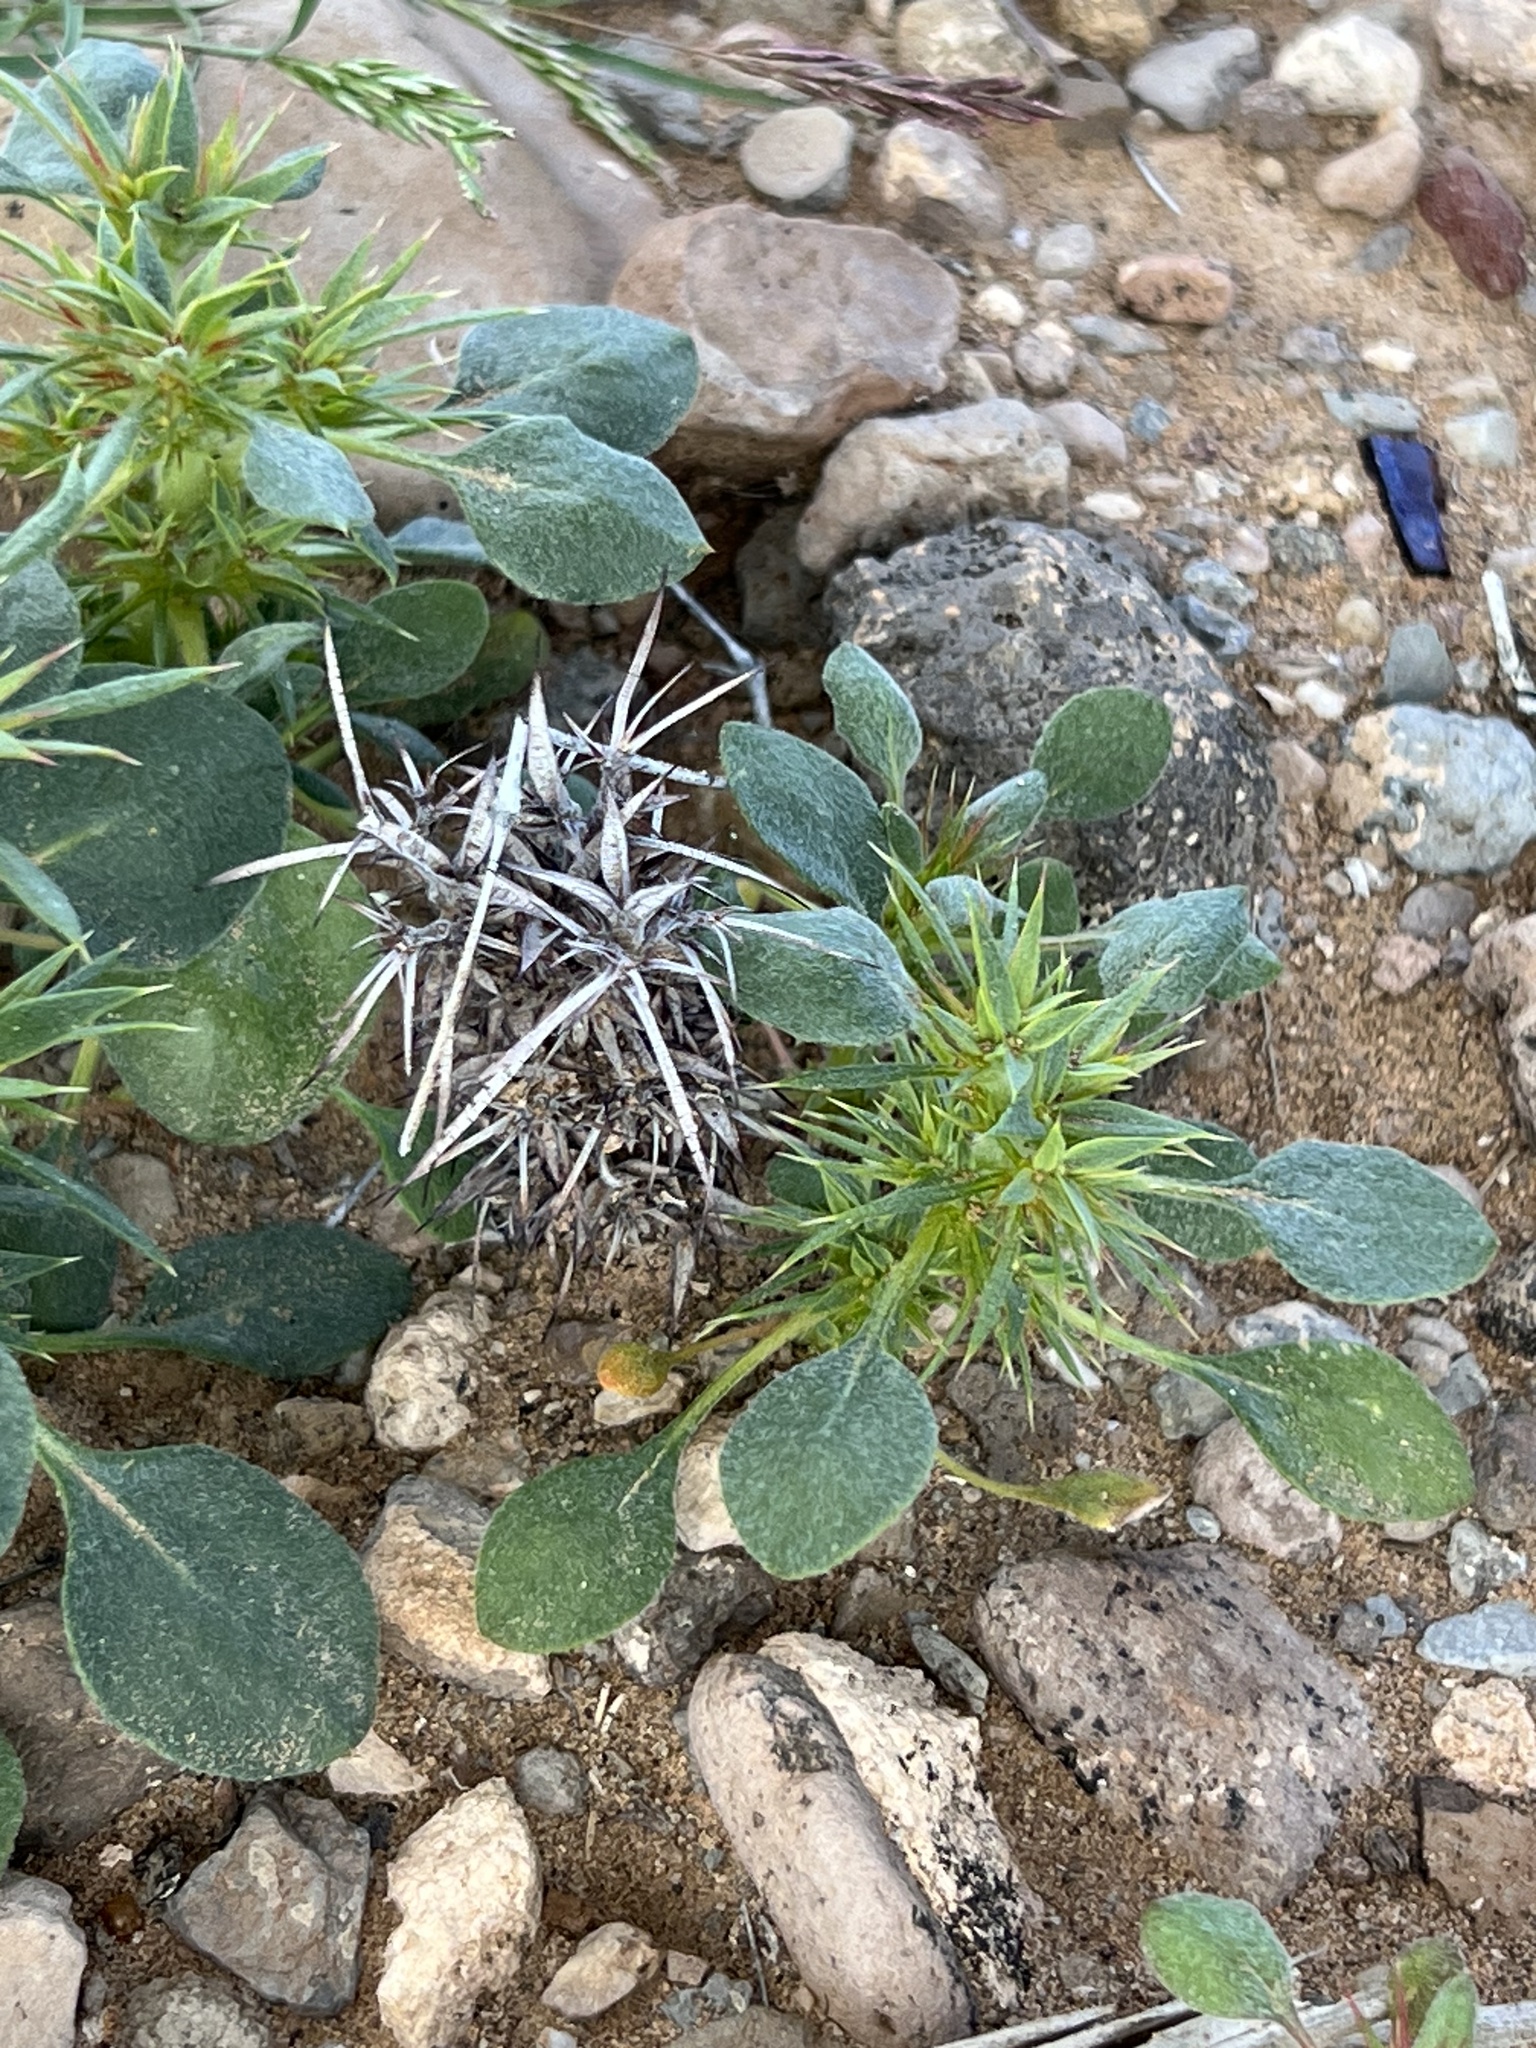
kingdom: Plantae
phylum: Tracheophyta
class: Magnoliopsida
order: Caryophyllales
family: Polygonaceae
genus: Chorizanthe
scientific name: Chorizanthe rigida
